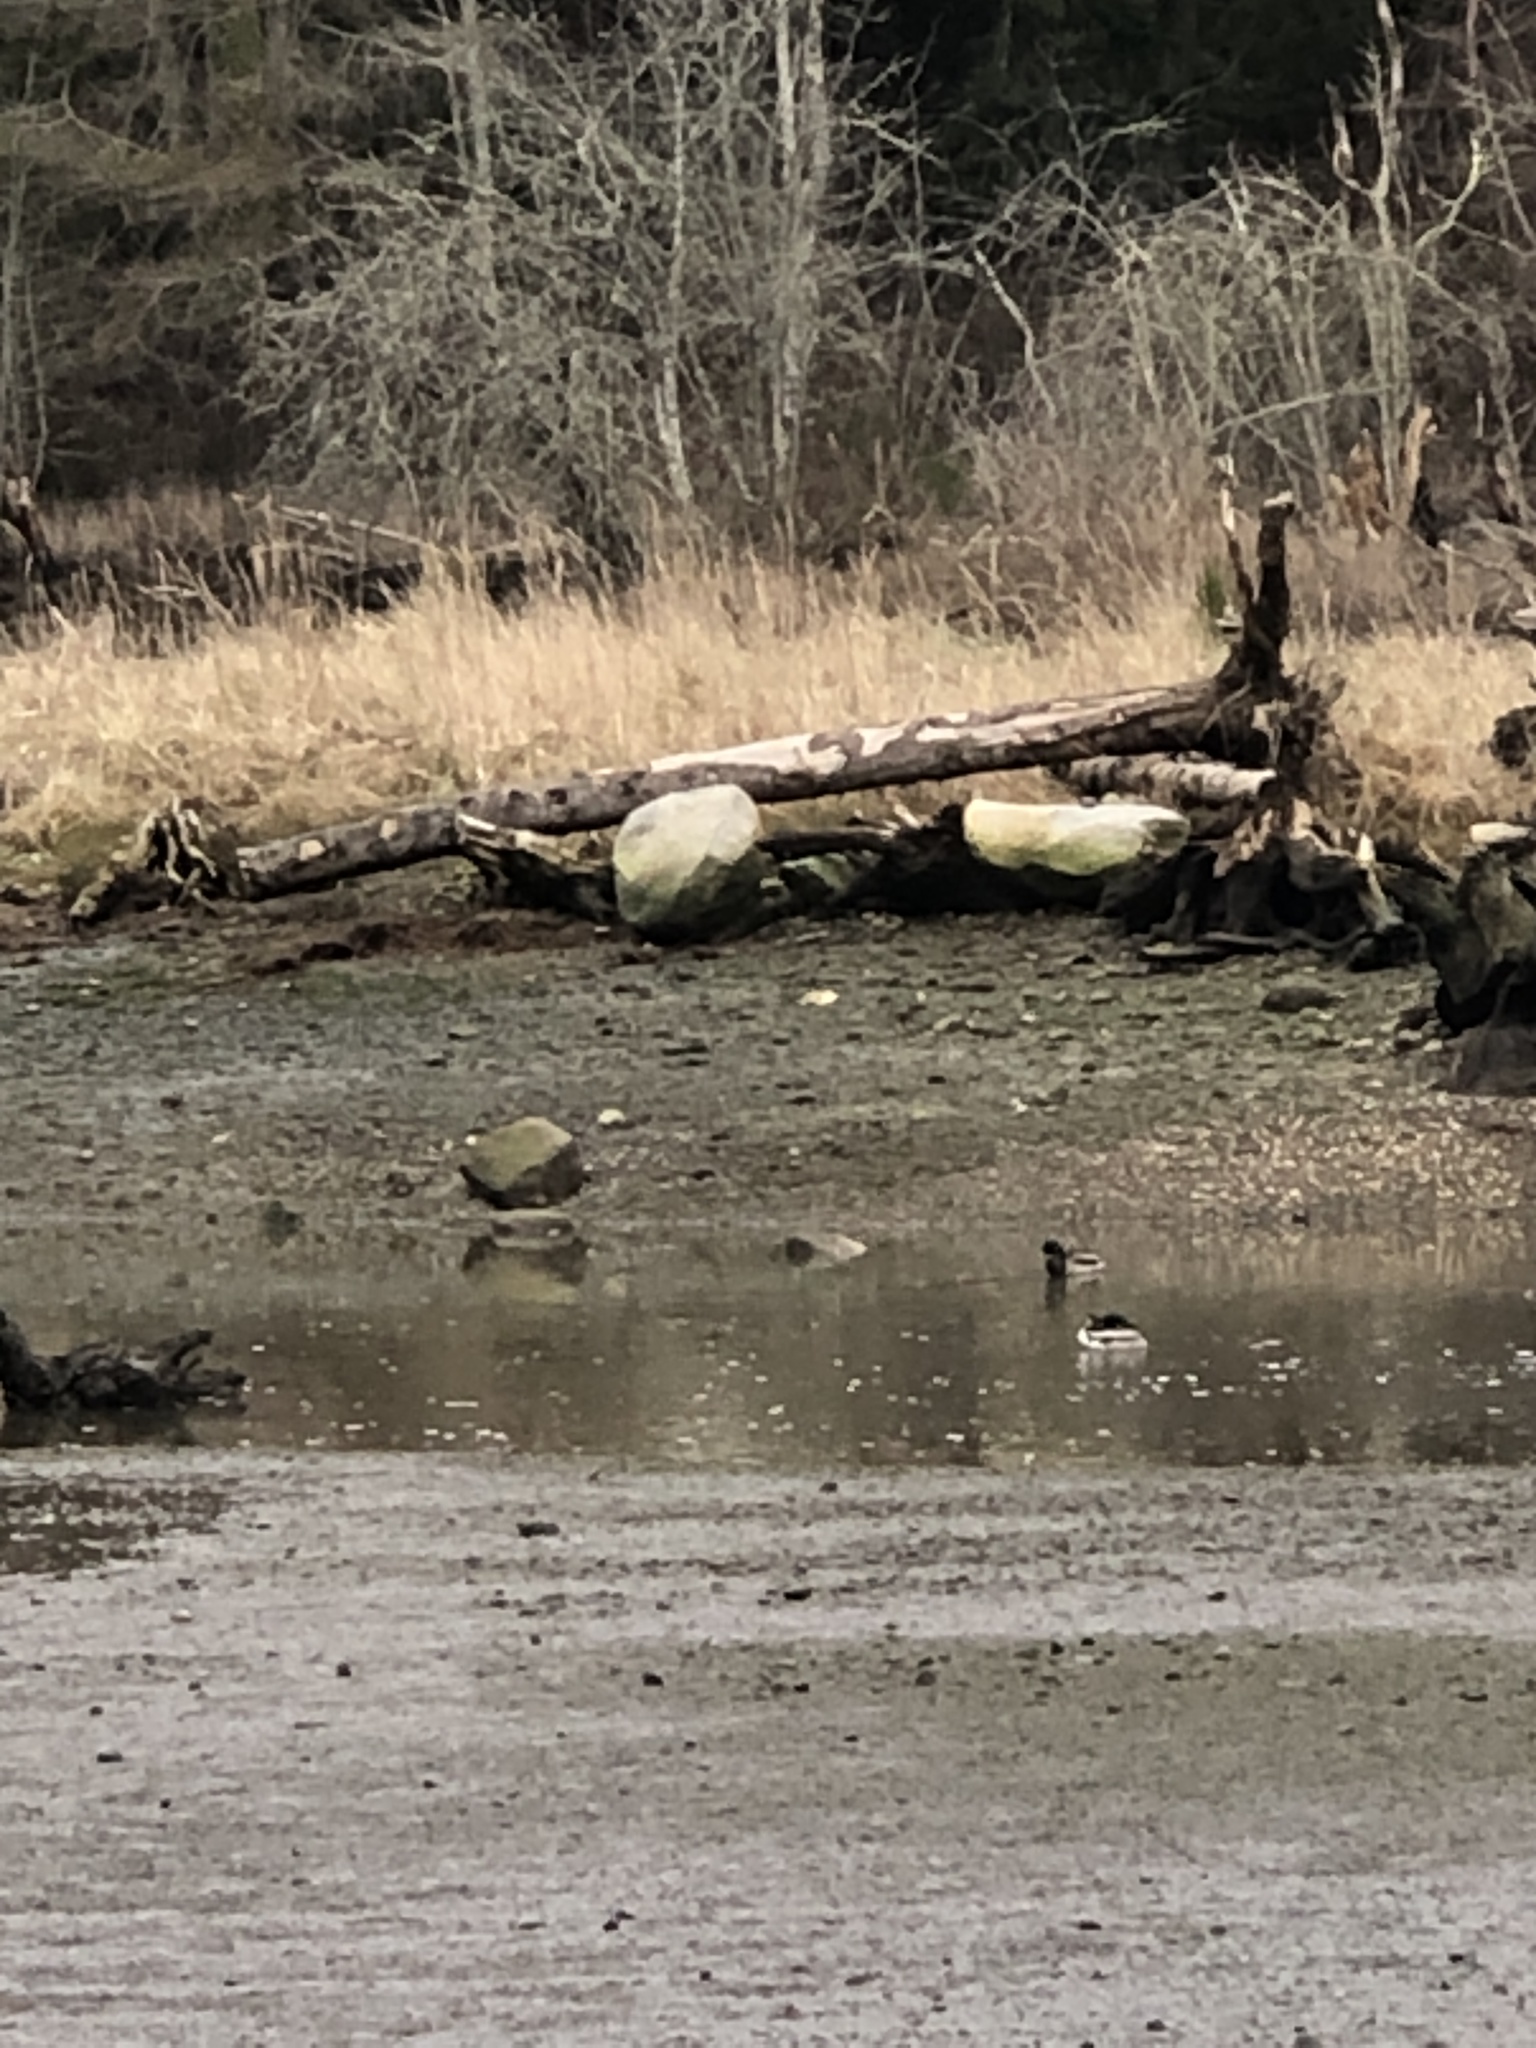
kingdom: Animalia
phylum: Chordata
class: Aves
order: Anseriformes
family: Anatidae
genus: Anas
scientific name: Anas platyrhynchos
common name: Mallard
